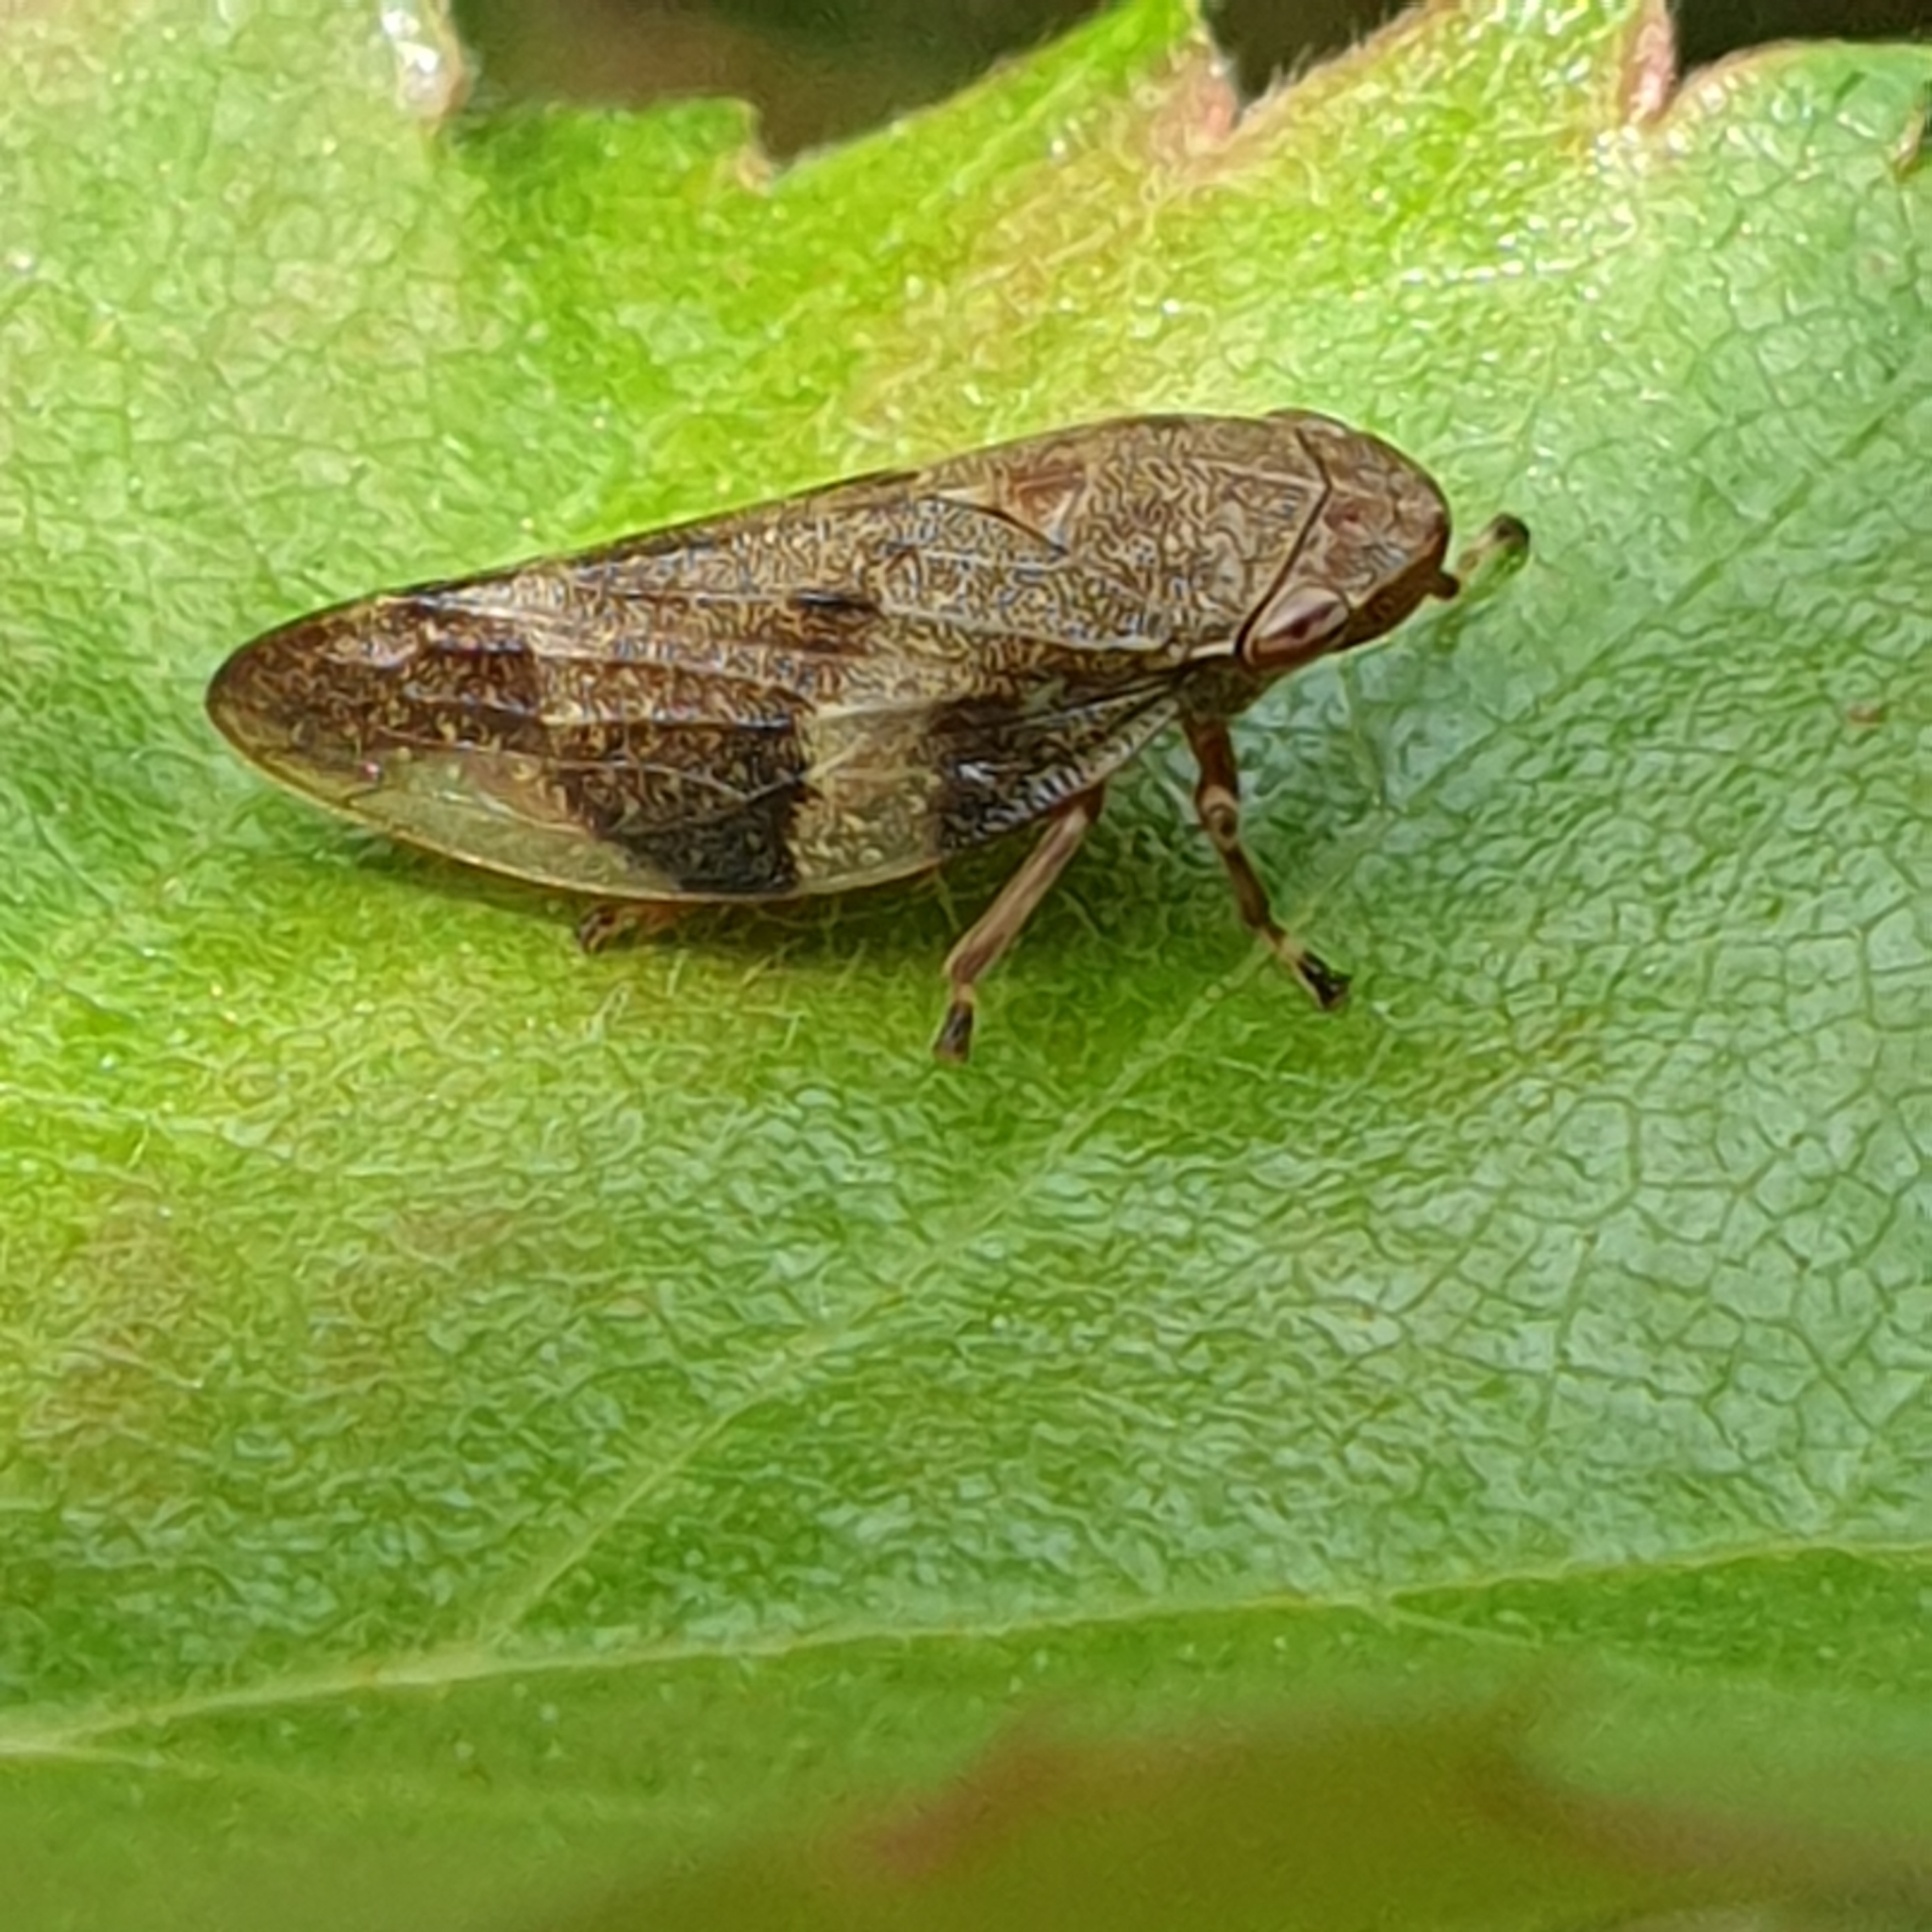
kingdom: Animalia
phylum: Arthropoda
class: Insecta
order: Hemiptera
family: Aphrophoridae
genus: Aphrophora
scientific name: Aphrophora alni
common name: European alder spittlebug
